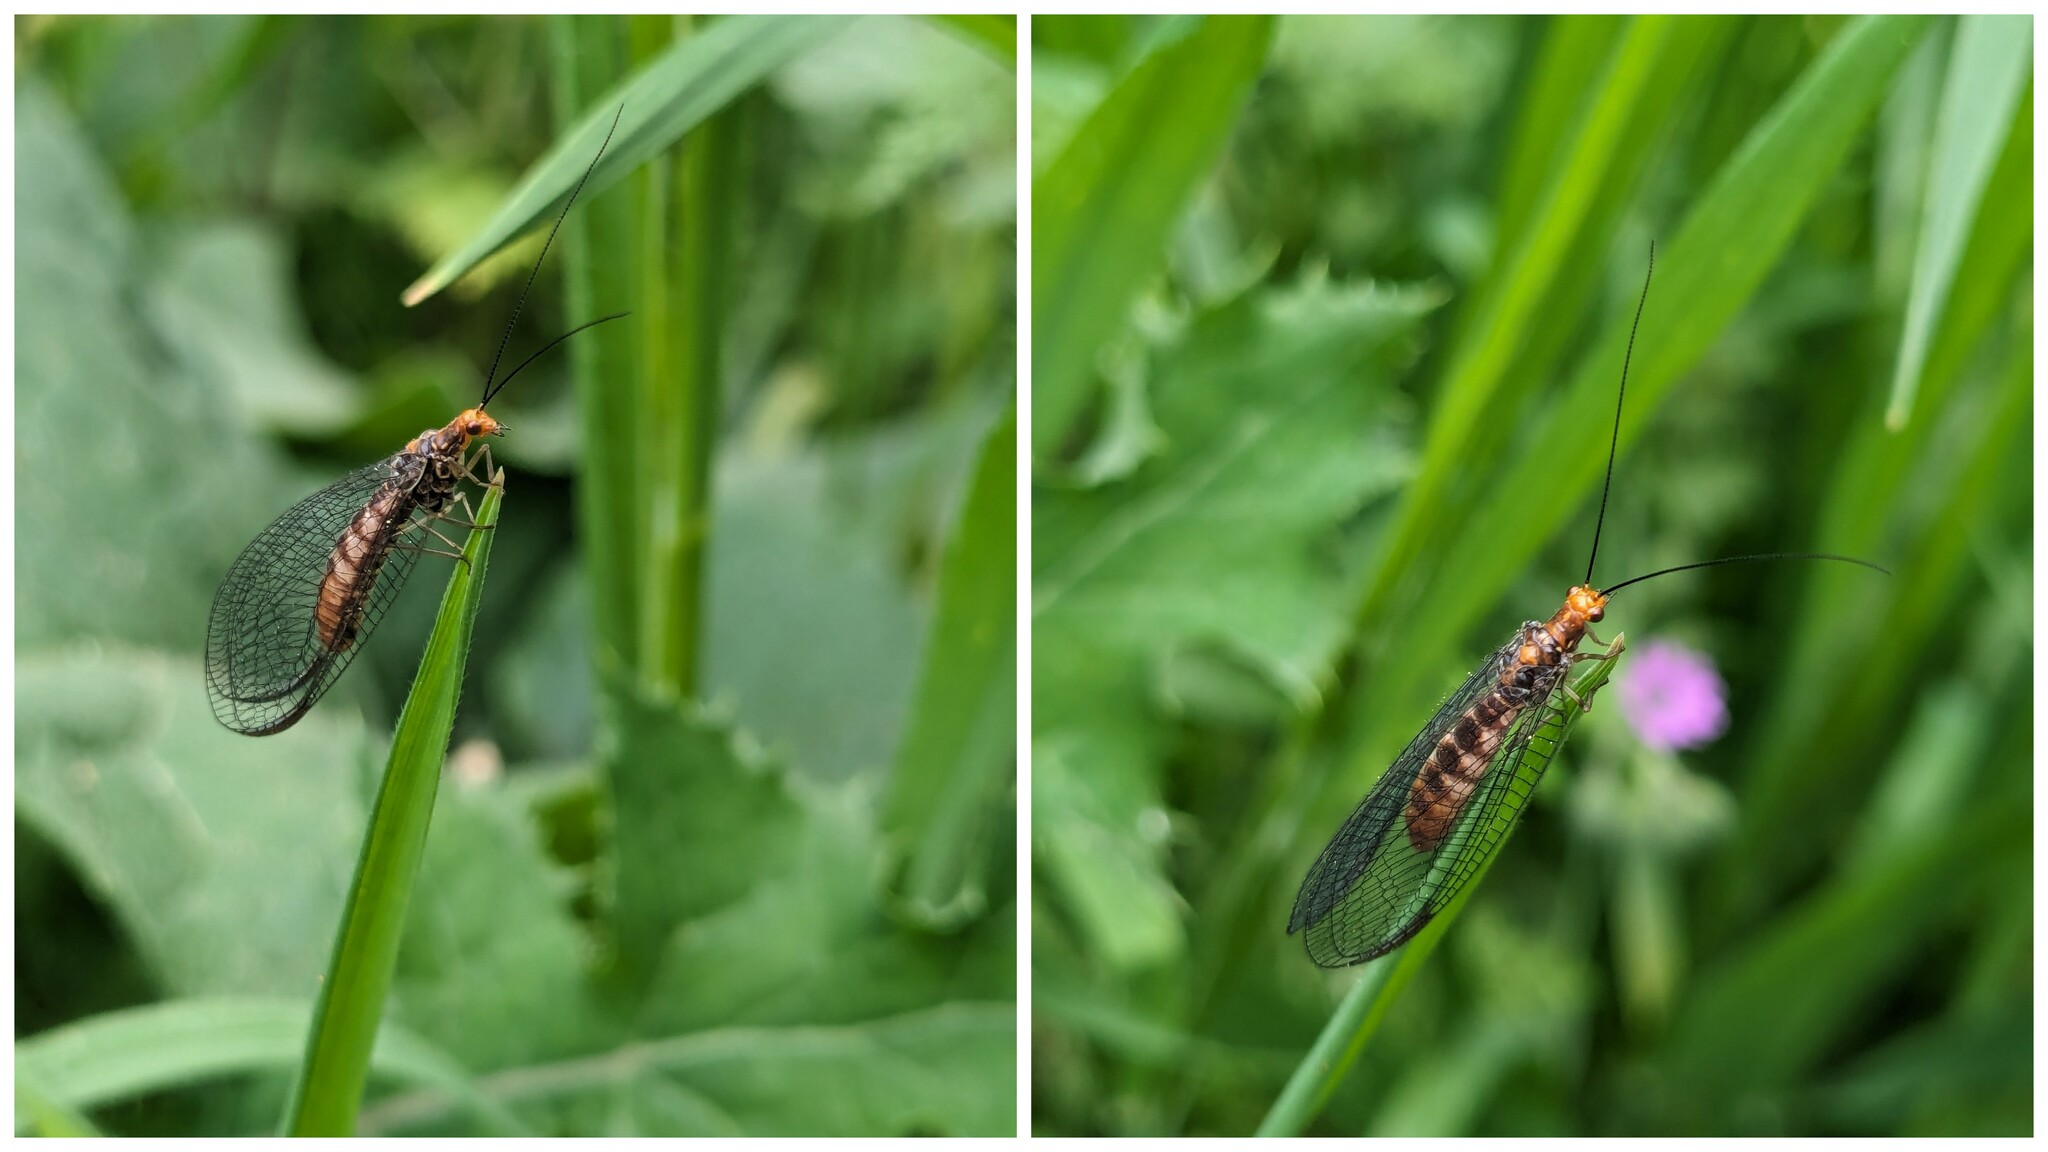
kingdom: Animalia
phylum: Arthropoda
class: Insecta
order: Neuroptera
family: Chrysopidae
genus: Nothochrysa
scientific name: Nothochrysa capitata
